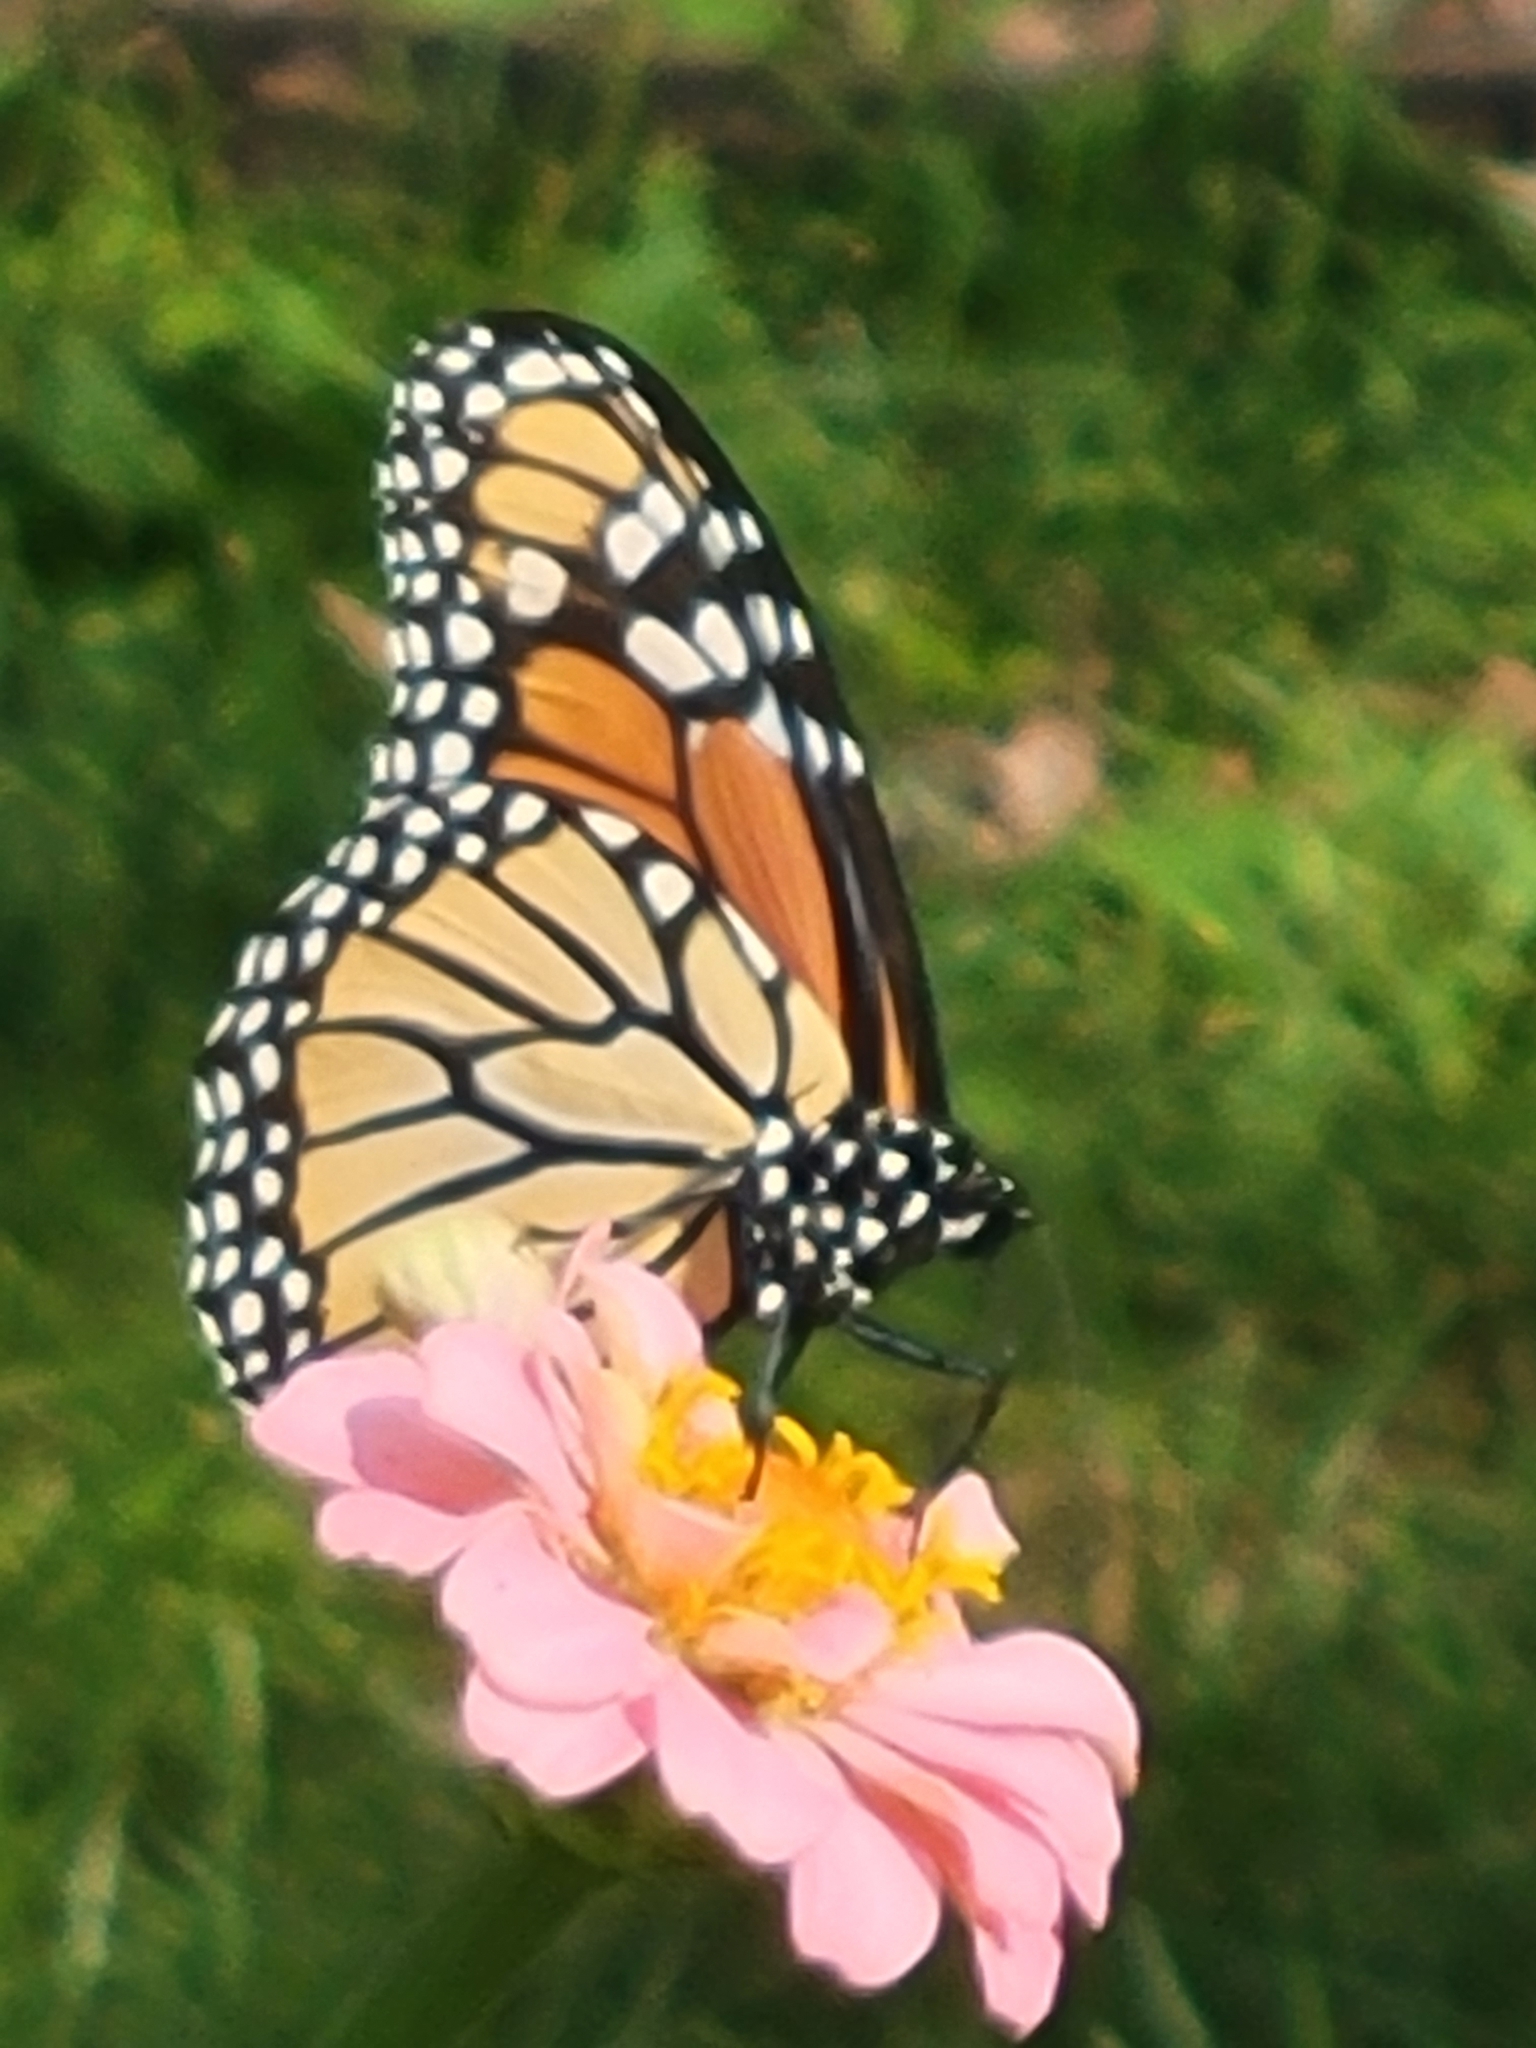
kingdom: Animalia
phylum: Arthropoda
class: Insecta
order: Lepidoptera
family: Nymphalidae
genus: Danaus
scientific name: Danaus plexippus
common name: Monarch
